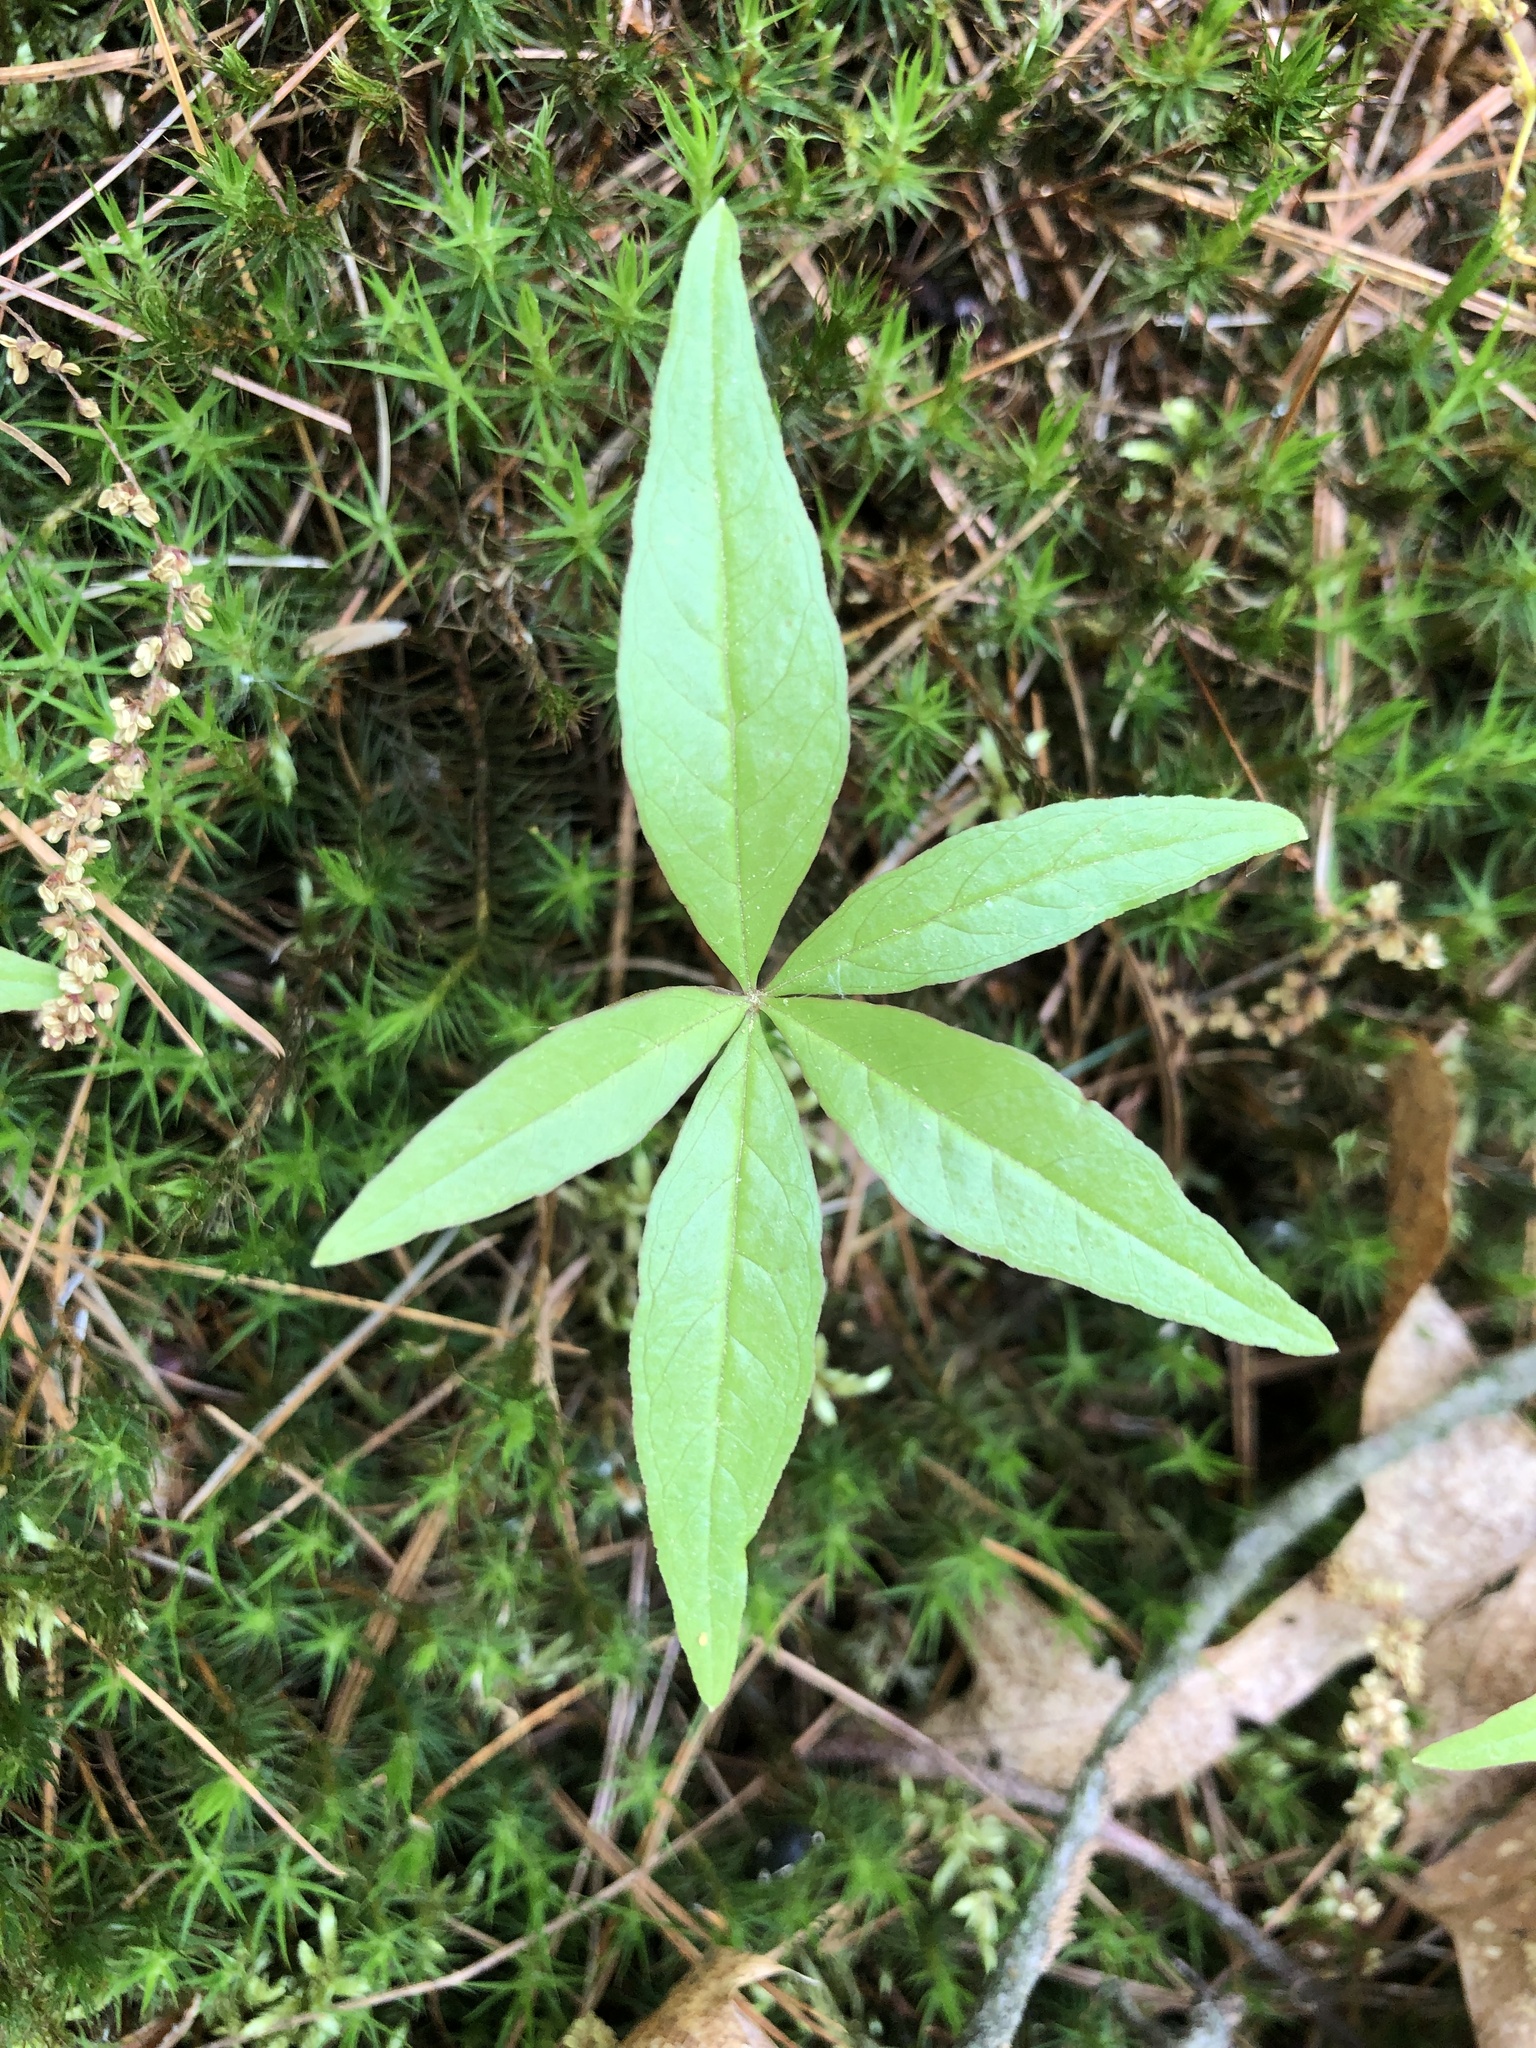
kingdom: Plantae
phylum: Tracheophyta
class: Magnoliopsida
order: Ericales
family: Primulaceae
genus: Lysimachia
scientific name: Lysimachia borealis
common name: American starflower
